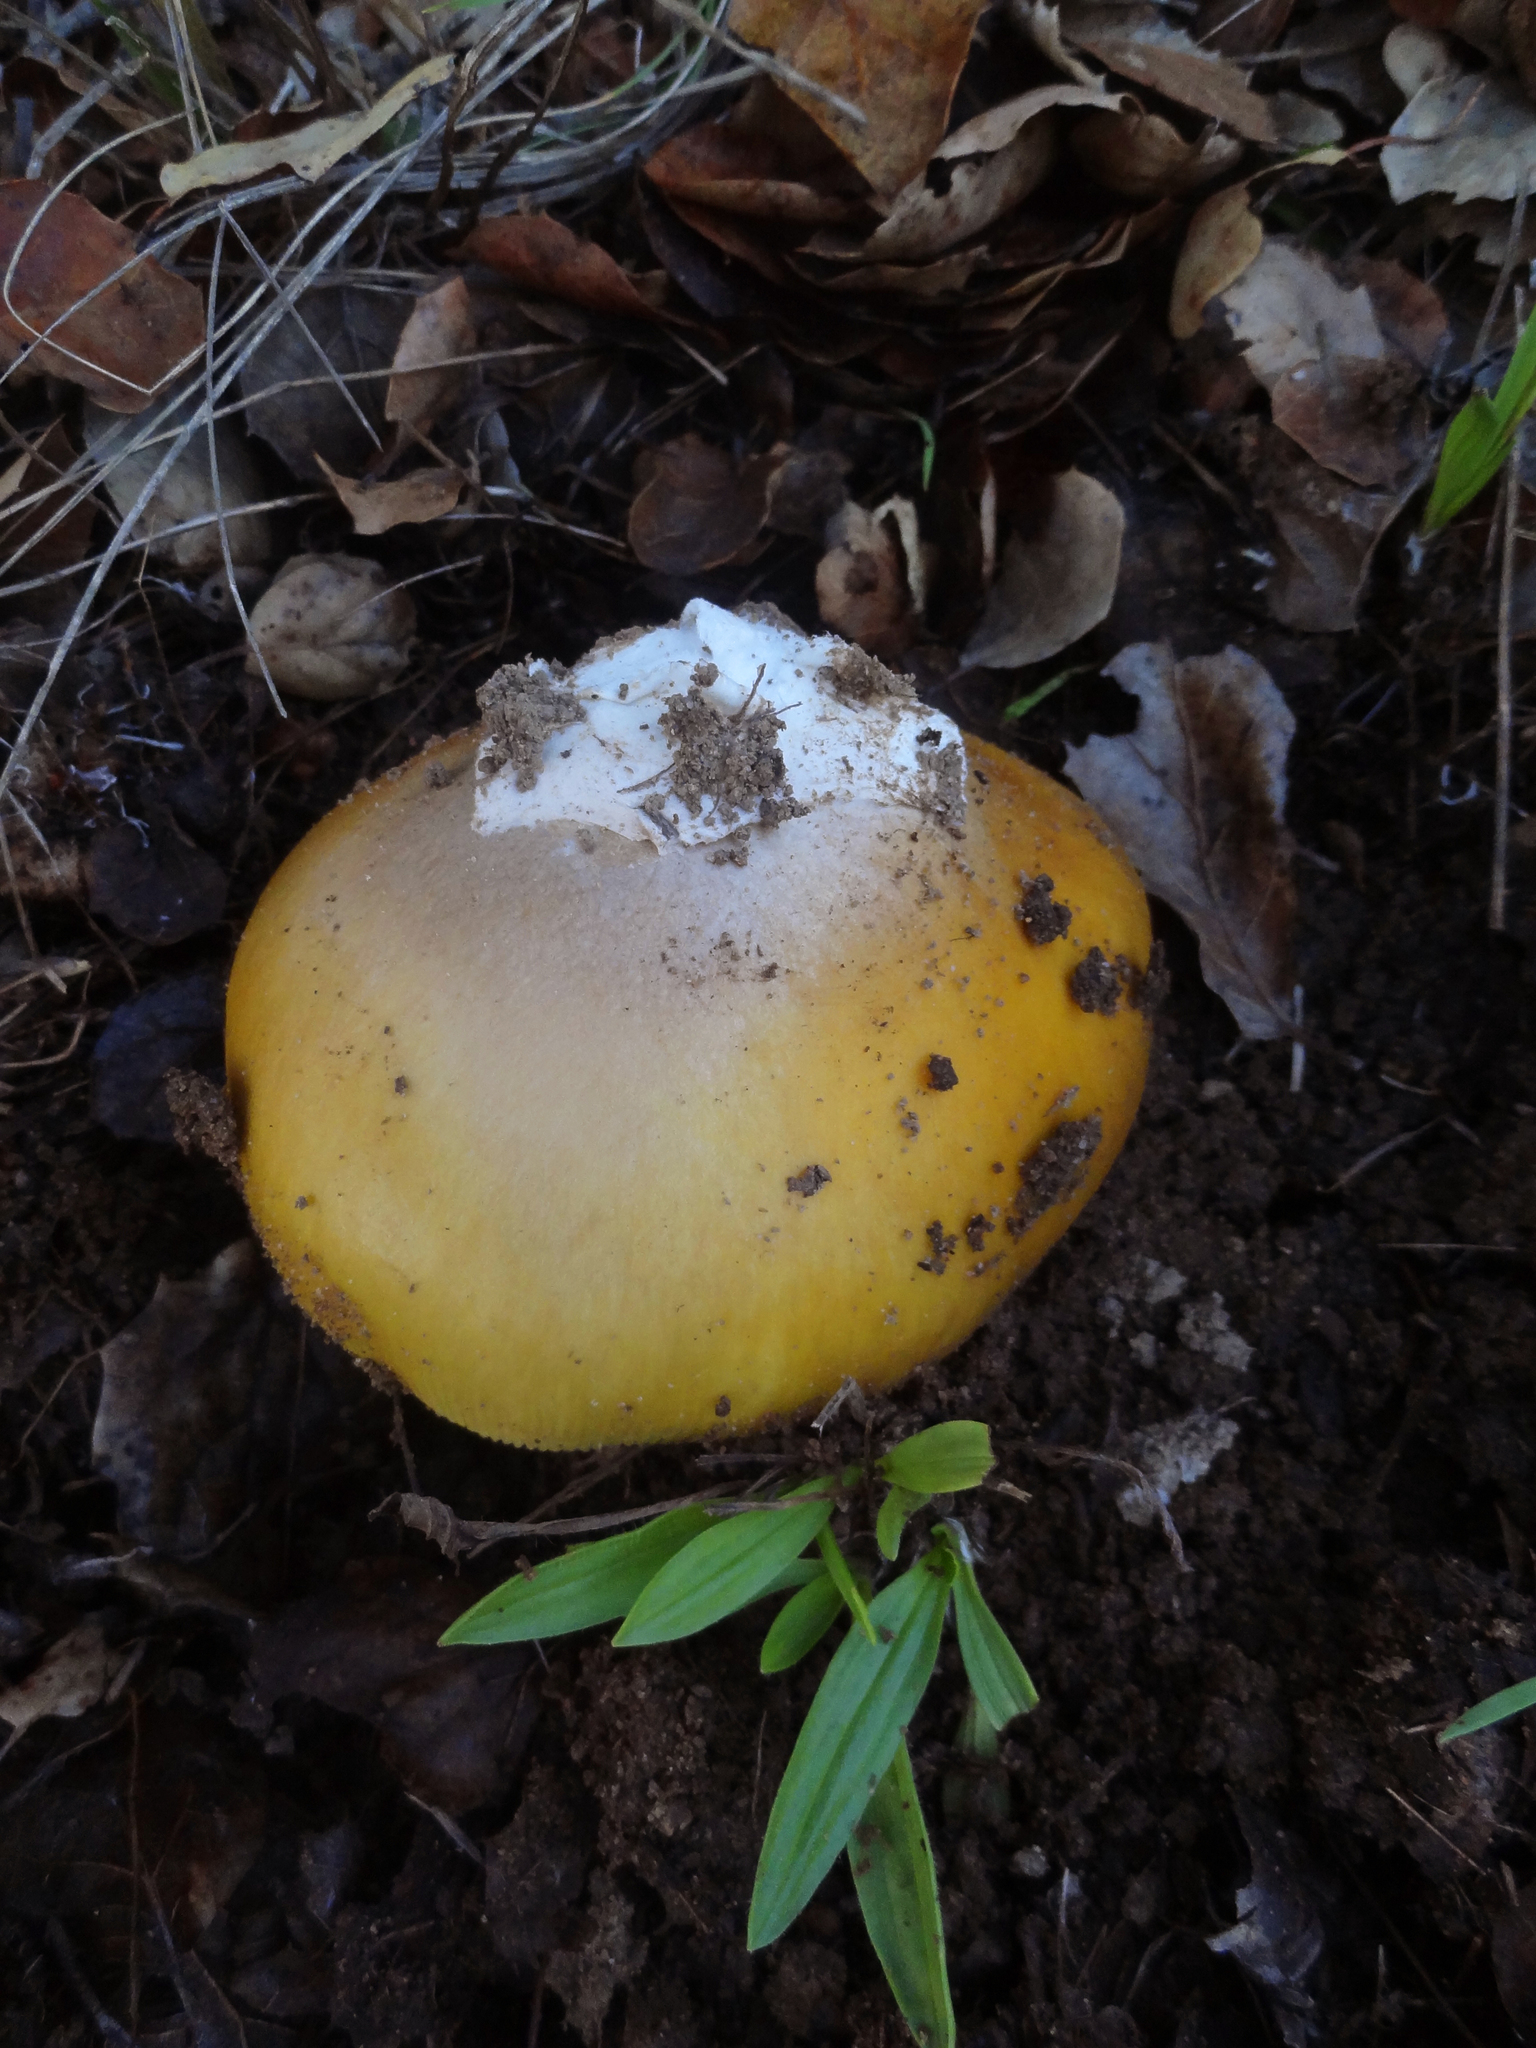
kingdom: Fungi
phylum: Basidiomycota
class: Agaricomycetes
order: Agaricales
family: Amanitaceae
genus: Amanita
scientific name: Amanita calyptroderma
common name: Coccora
